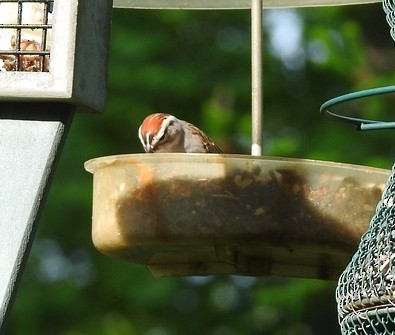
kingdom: Animalia
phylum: Chordata
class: Aves
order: Passeriformes
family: Passerellidae
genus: Spizella
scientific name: Spizella passerina
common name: Chipping sparrow
